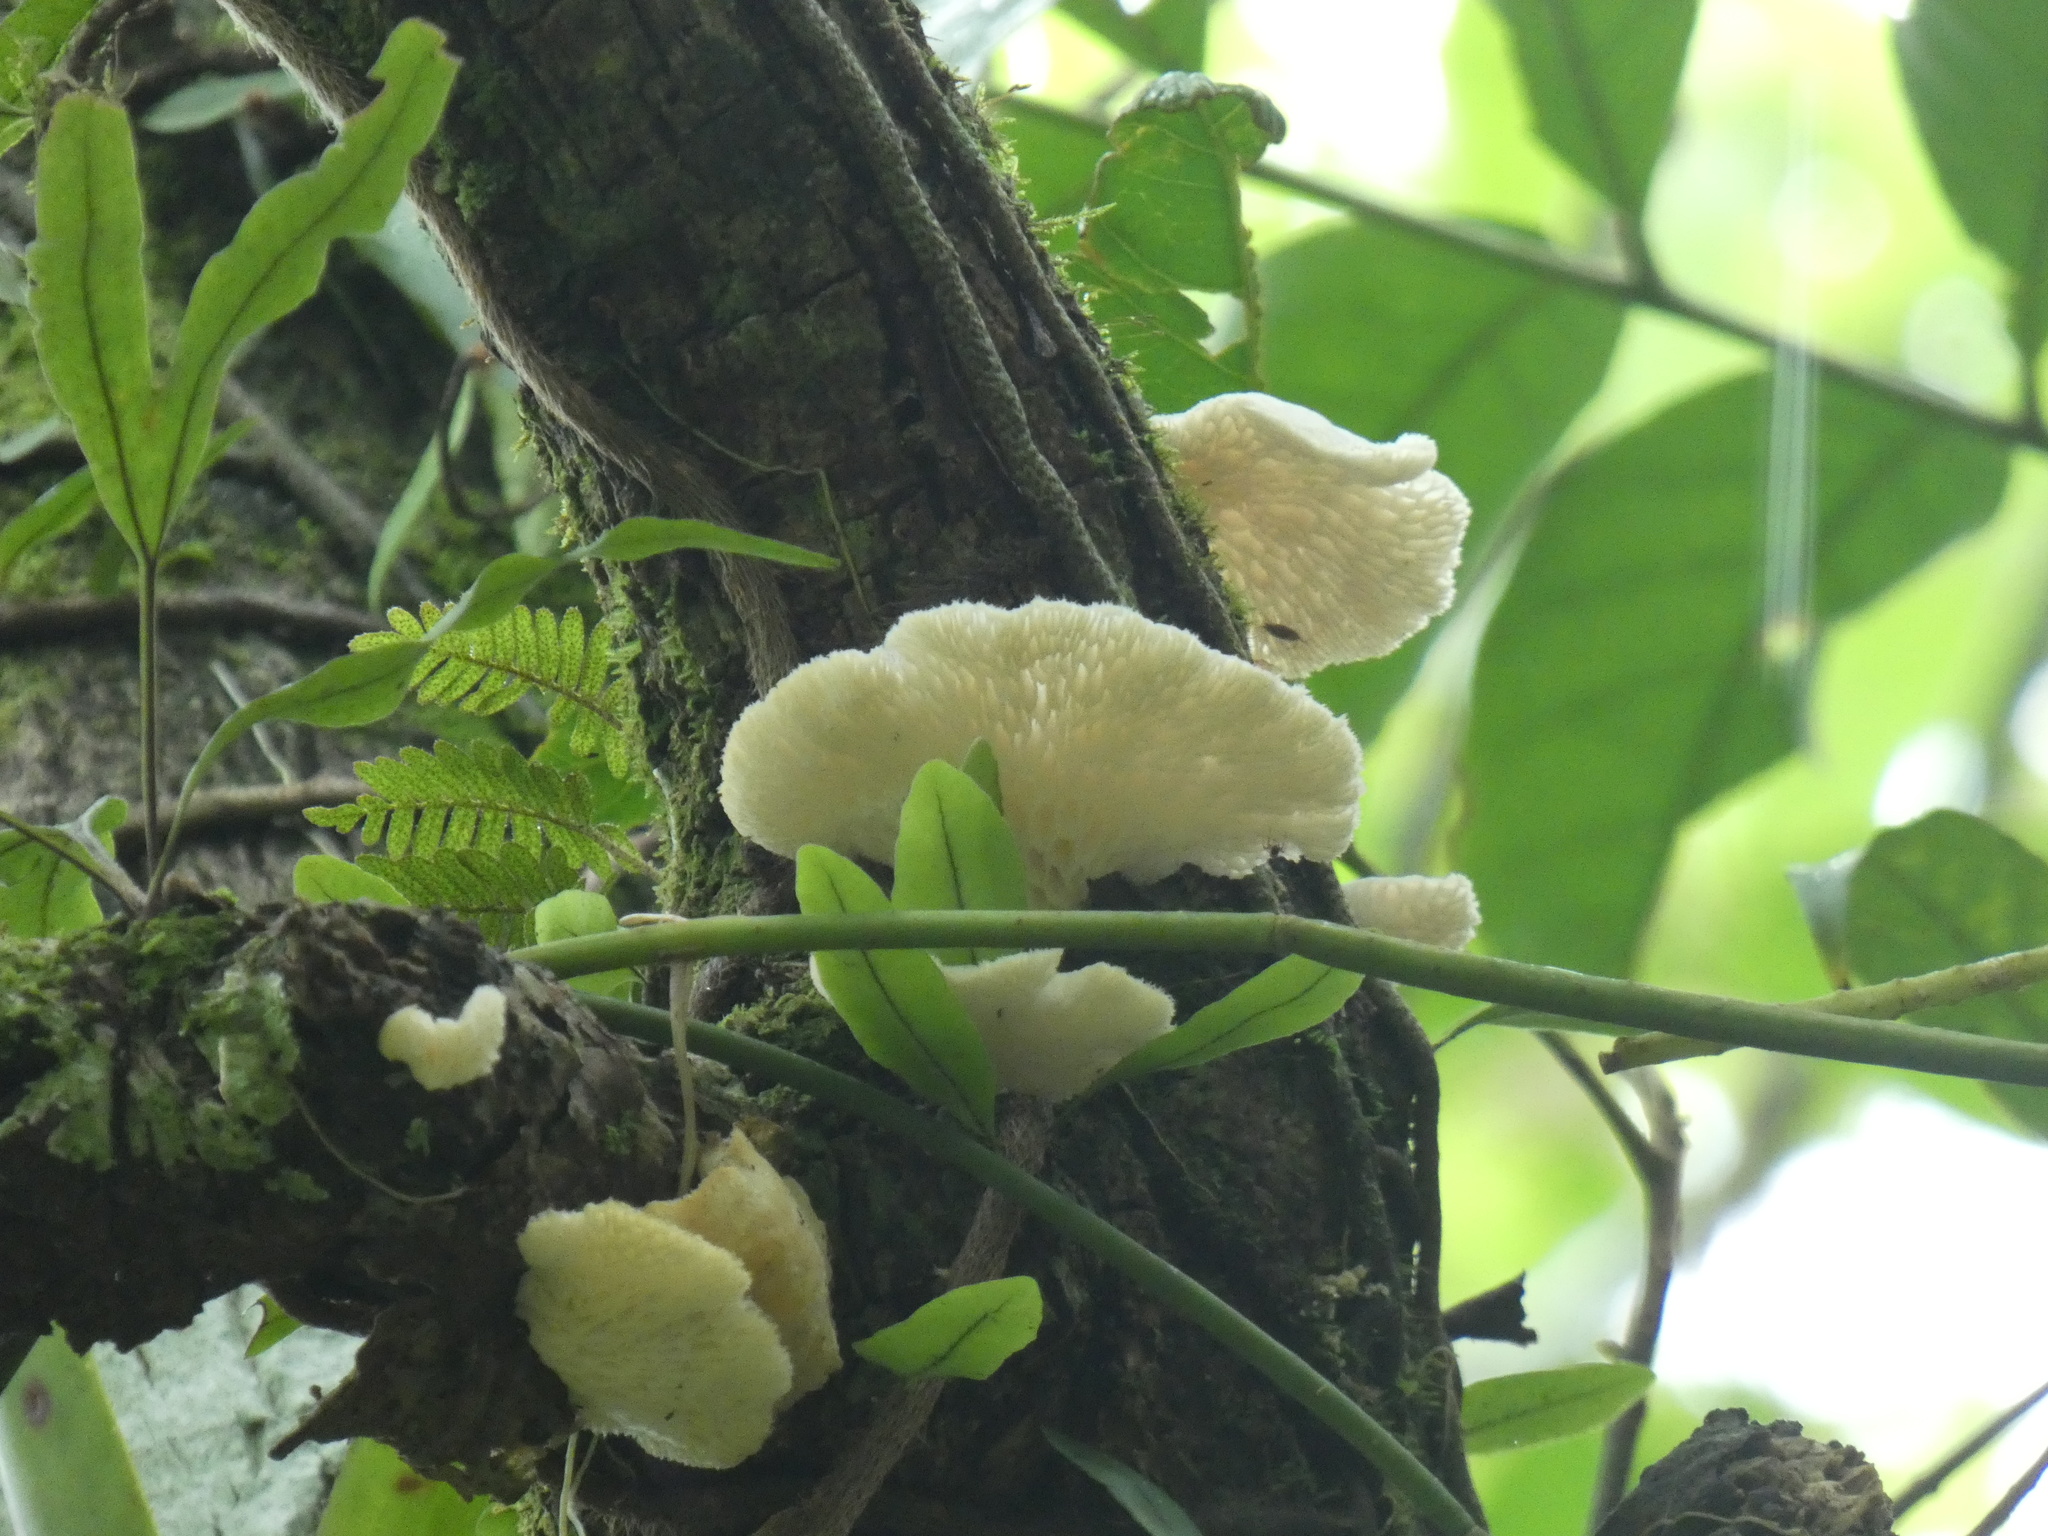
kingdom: Fungi
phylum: Basidiomycota
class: Agaricomycetes
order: Polyporales
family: Polyporaceae
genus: Favolus
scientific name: Favolus tenuiculus
